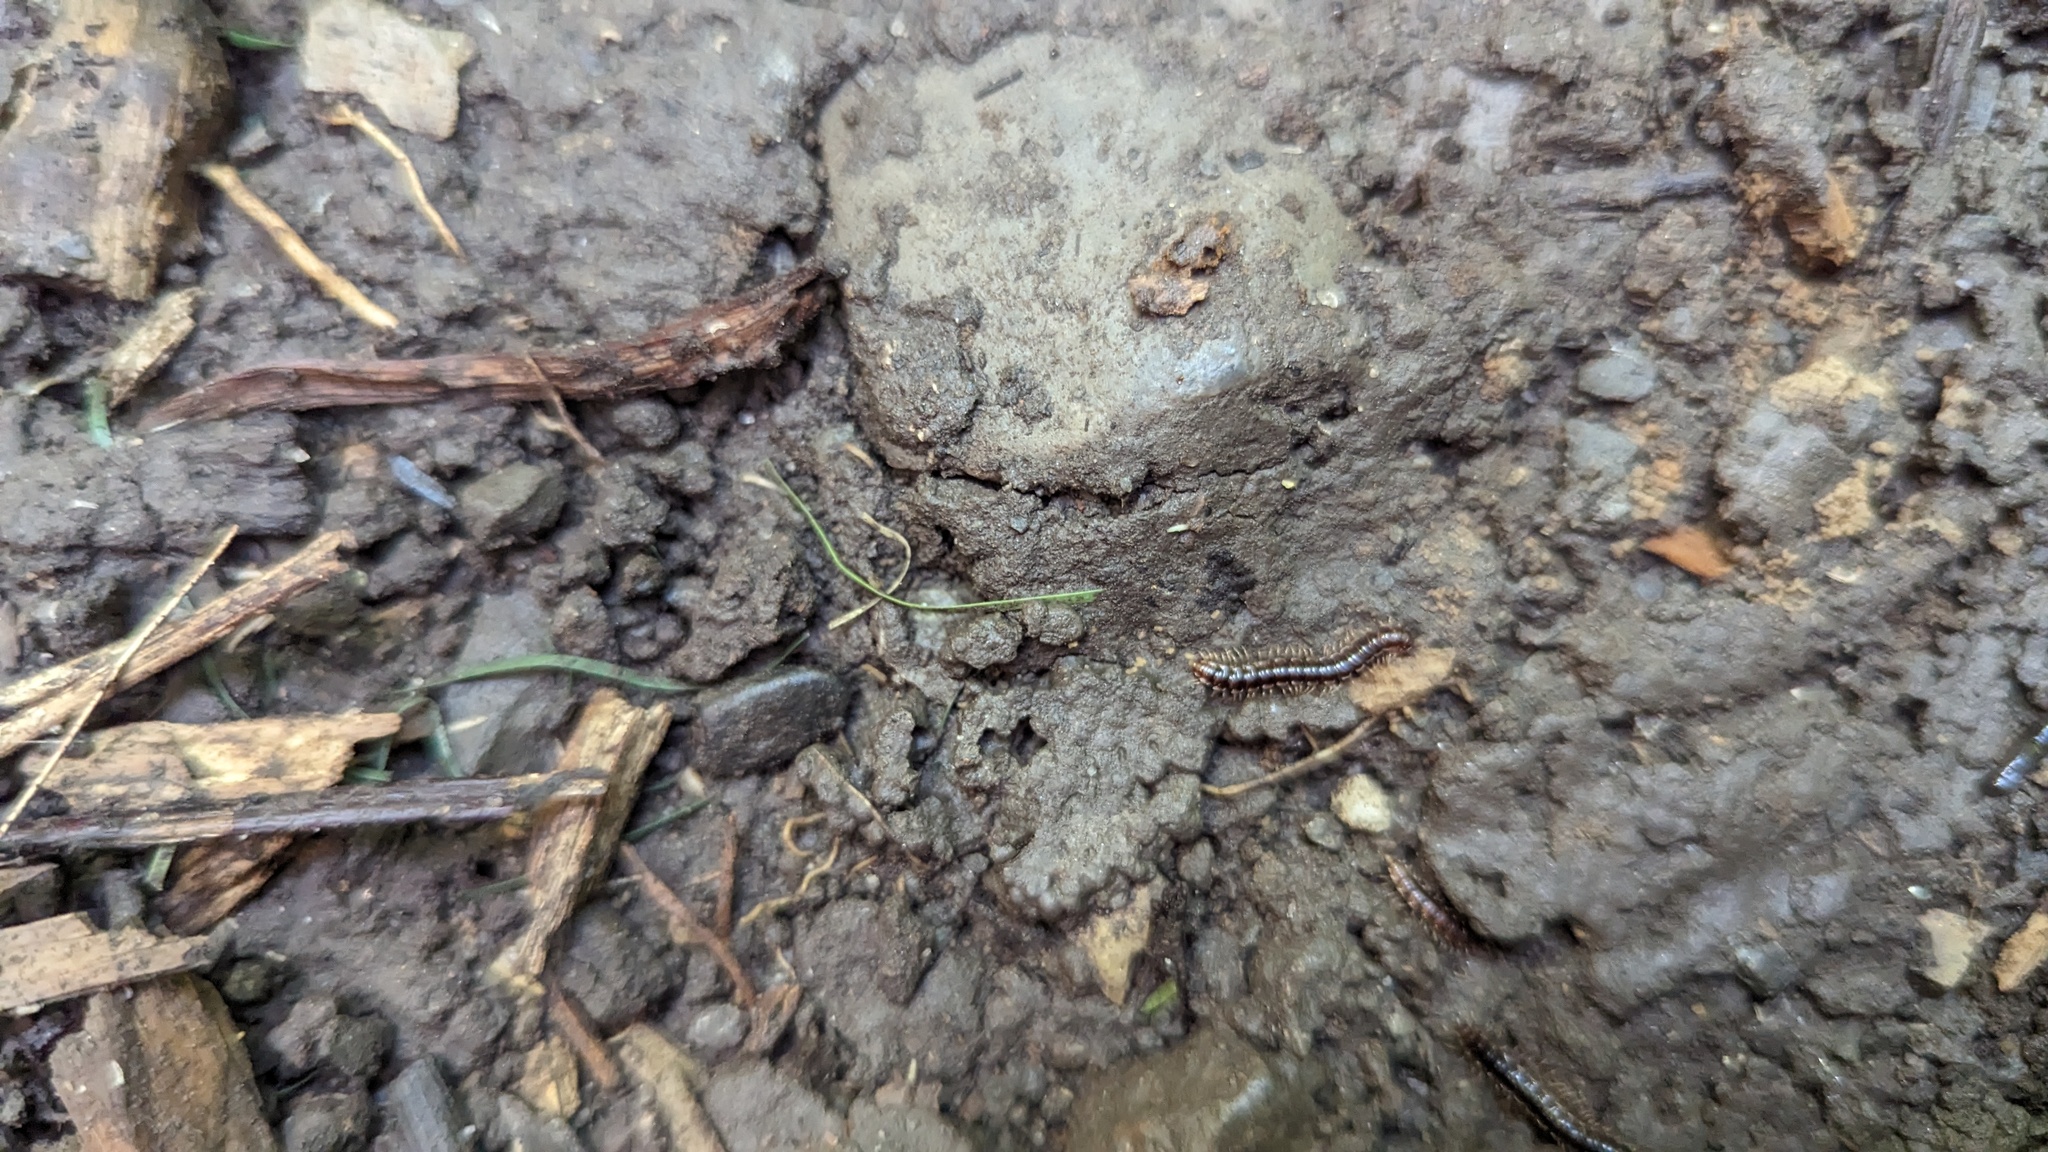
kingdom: Animalia
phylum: Arthropoda
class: Diplopoda
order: Polydesmida
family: Paradoxosomatidae
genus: Oxidus
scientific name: Oxidus gracilis
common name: Greenhouse millipede
